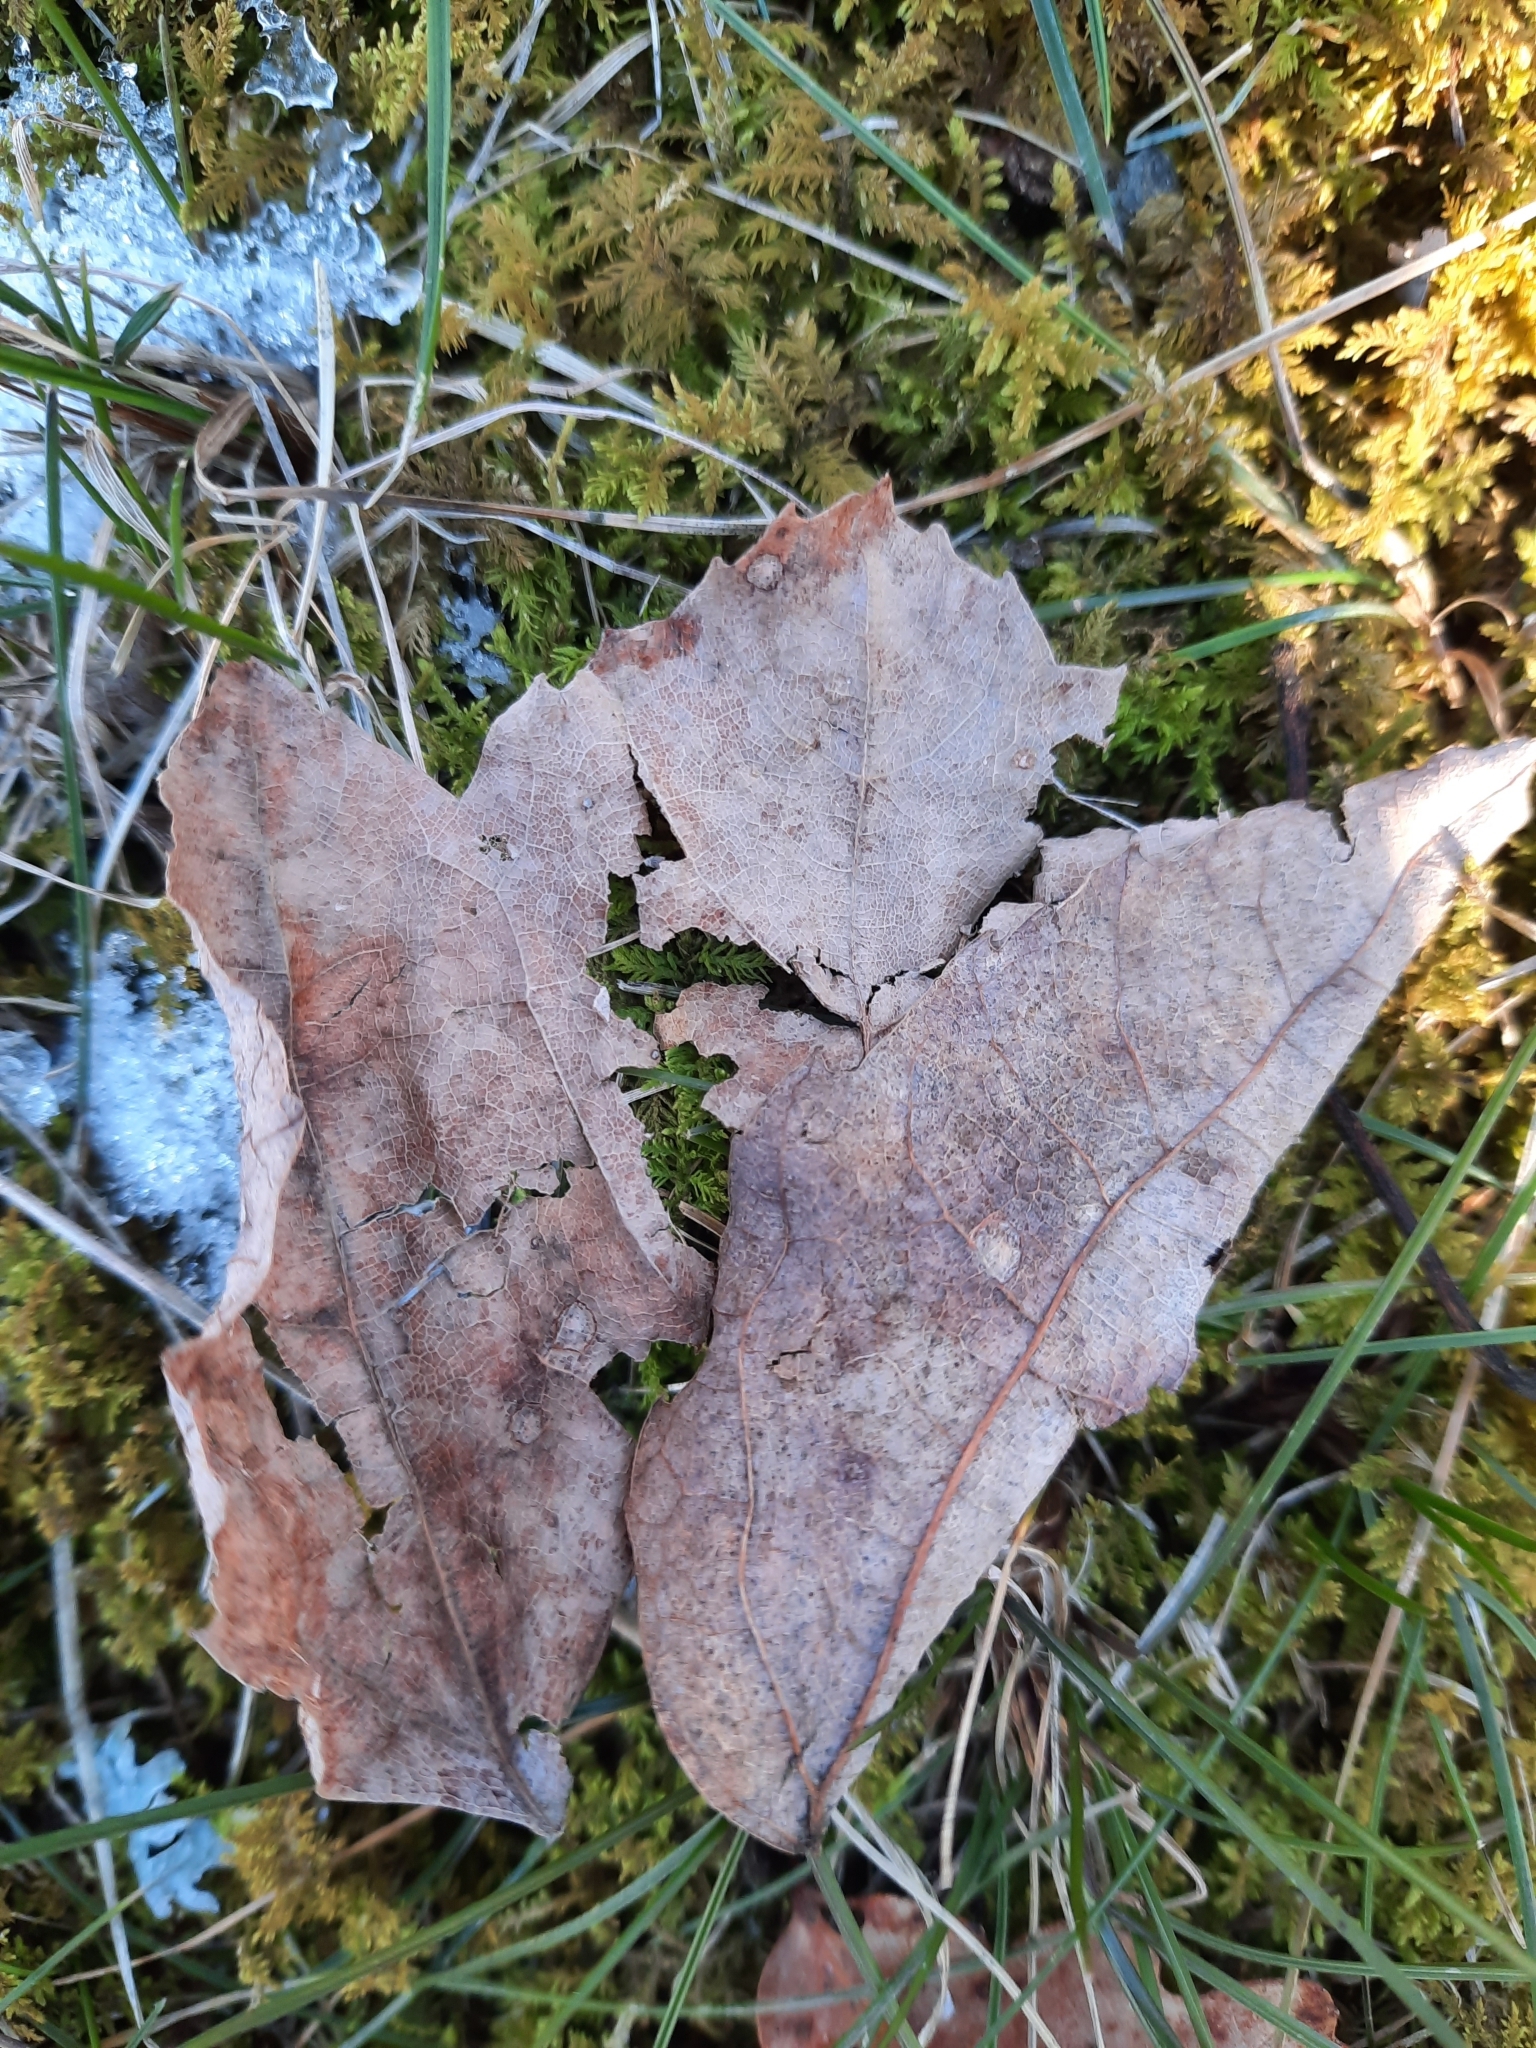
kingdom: Plantae
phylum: Tracheophyta
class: Magnoliopsida
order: Sapindales
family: Sapindaceae
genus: Acer
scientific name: Acer rubrum
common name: Red maple
